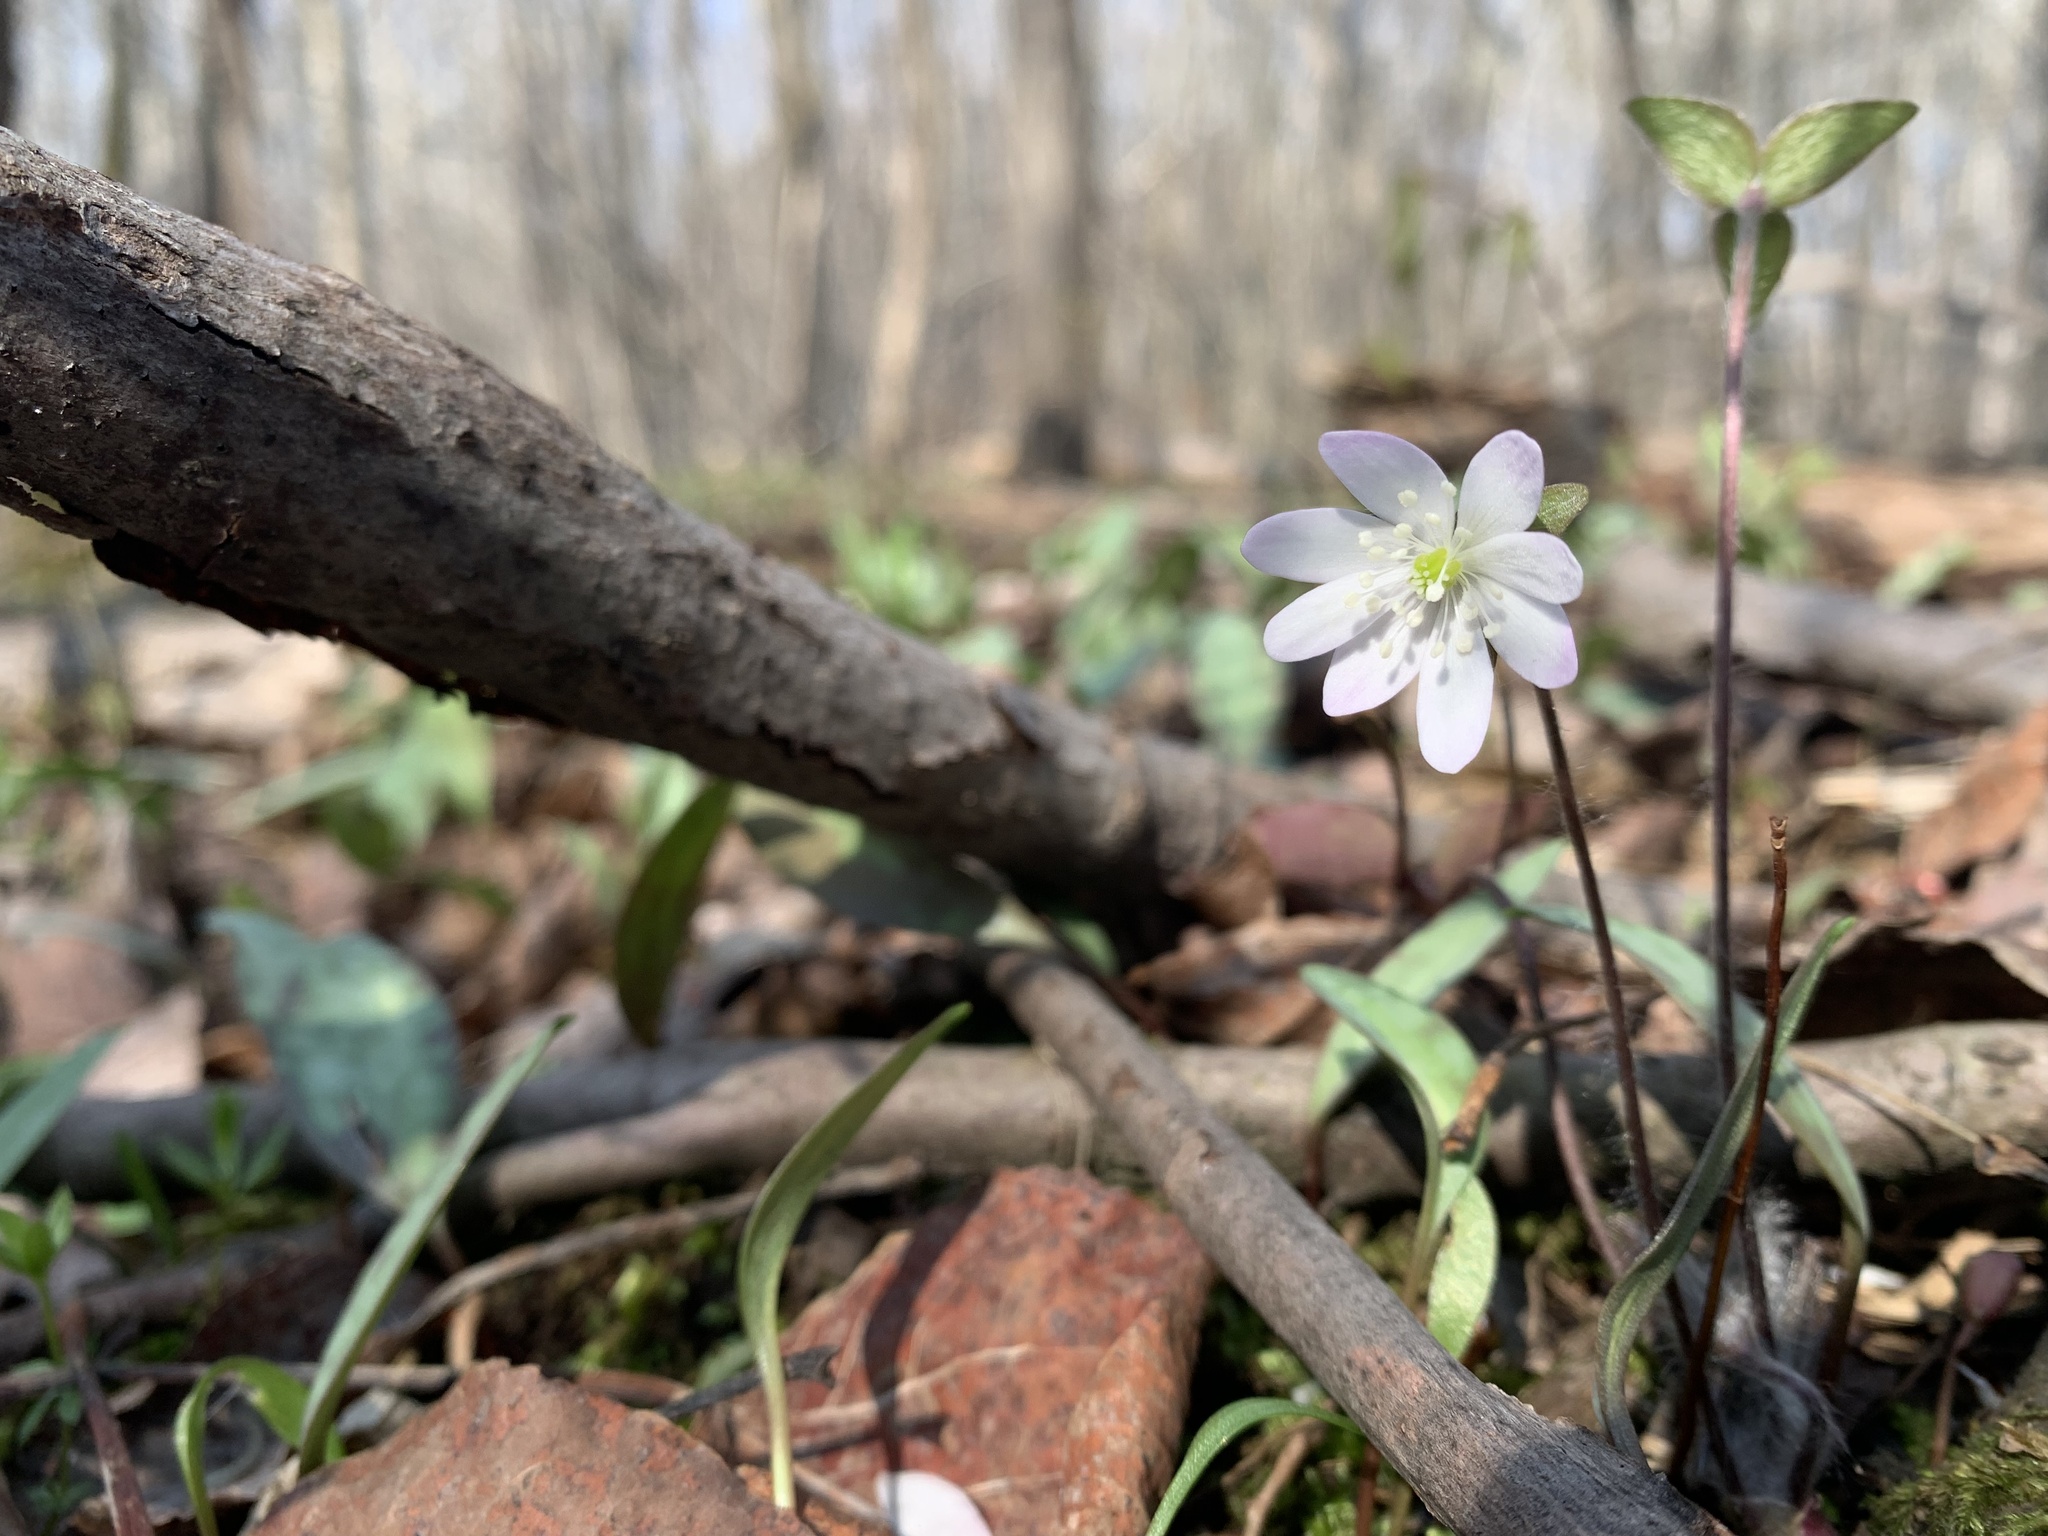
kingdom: Plantae
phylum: Tracheophyta
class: Magnoliopsida
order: Ranunculales
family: Ranunculaceae
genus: Hepatica
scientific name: Hepatica acutiloba
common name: Sharp-lobed hepatica
